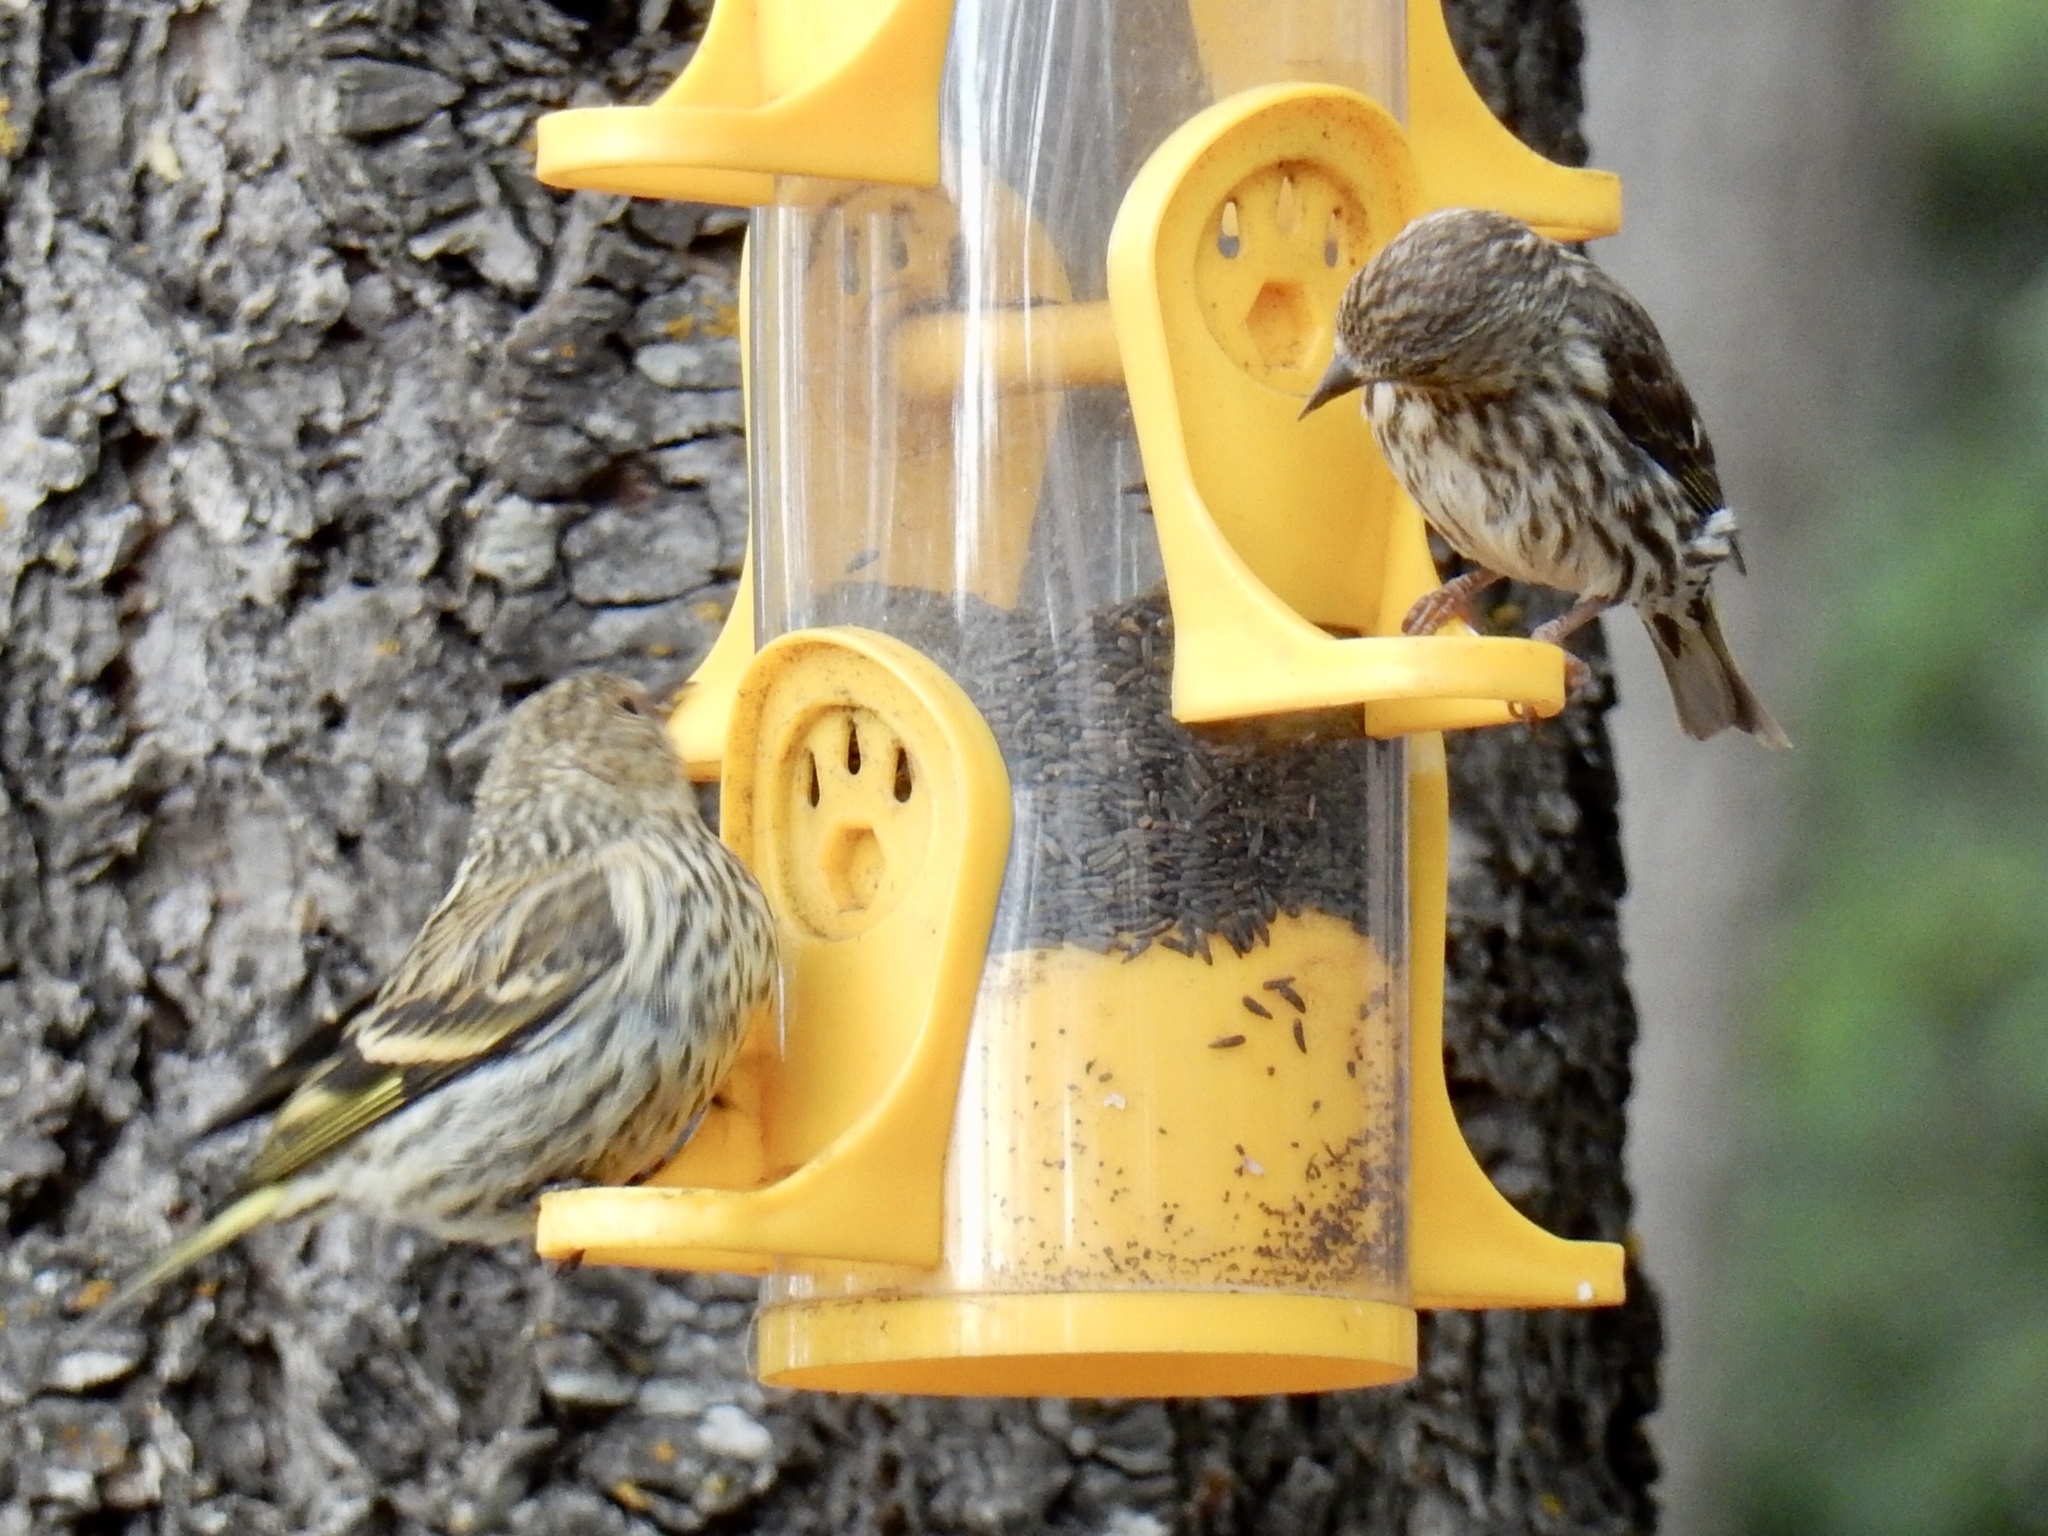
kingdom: Animalia
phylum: Chordata
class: Aves
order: Passeriformes
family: Fringillidae
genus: Spinus
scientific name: Spinus pinus
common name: Pine siskin
